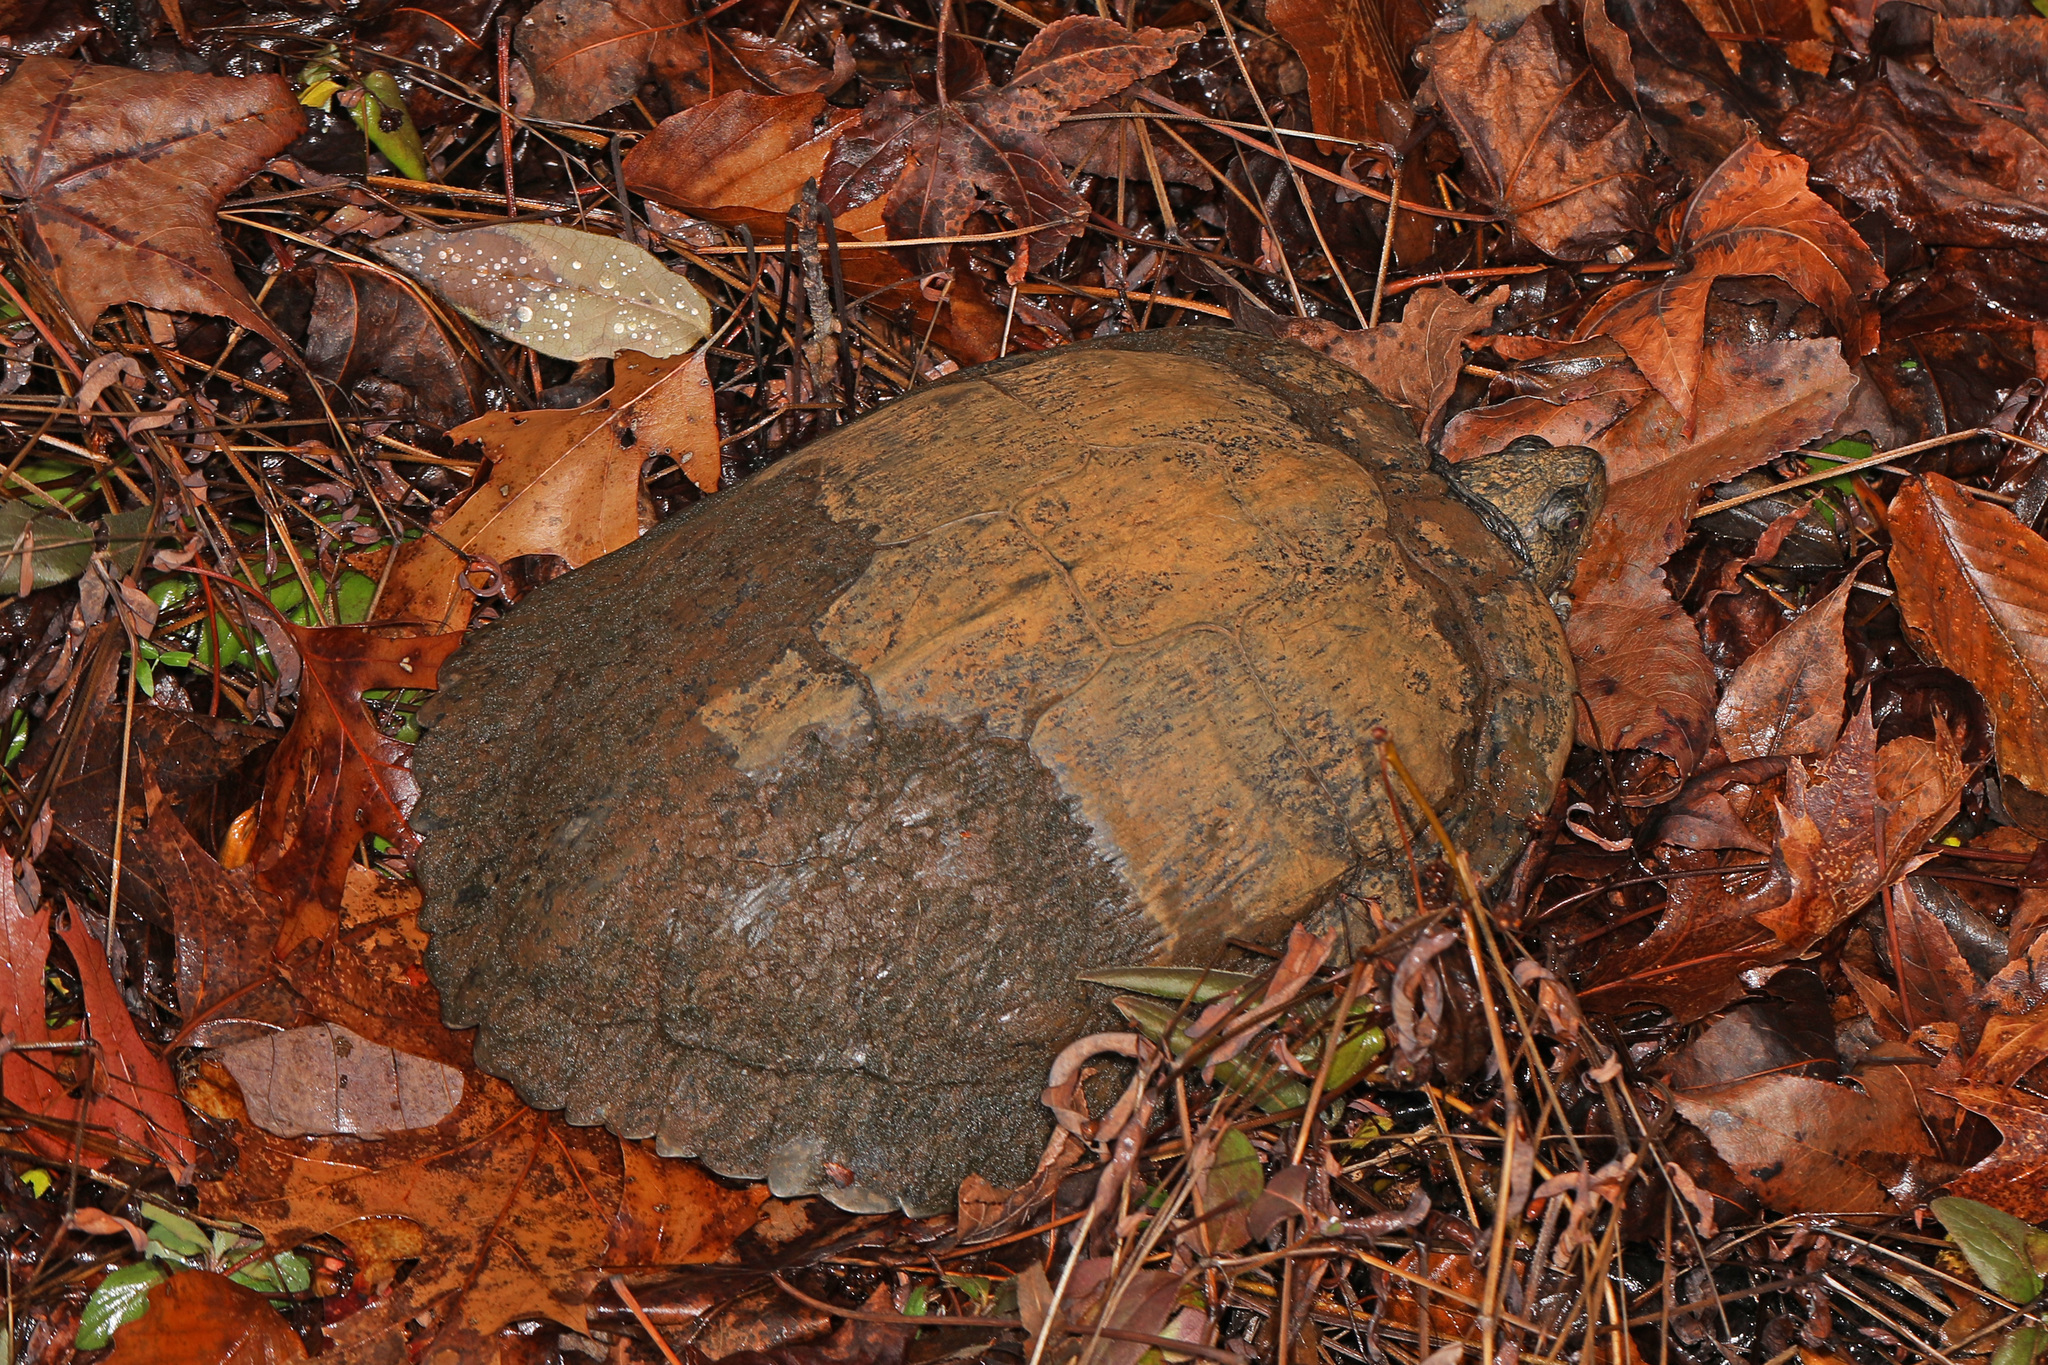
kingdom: Animalia
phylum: Chordata
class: Testudines
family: Emydidae
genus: Trachemys
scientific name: Trachemys scripta
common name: Slider
